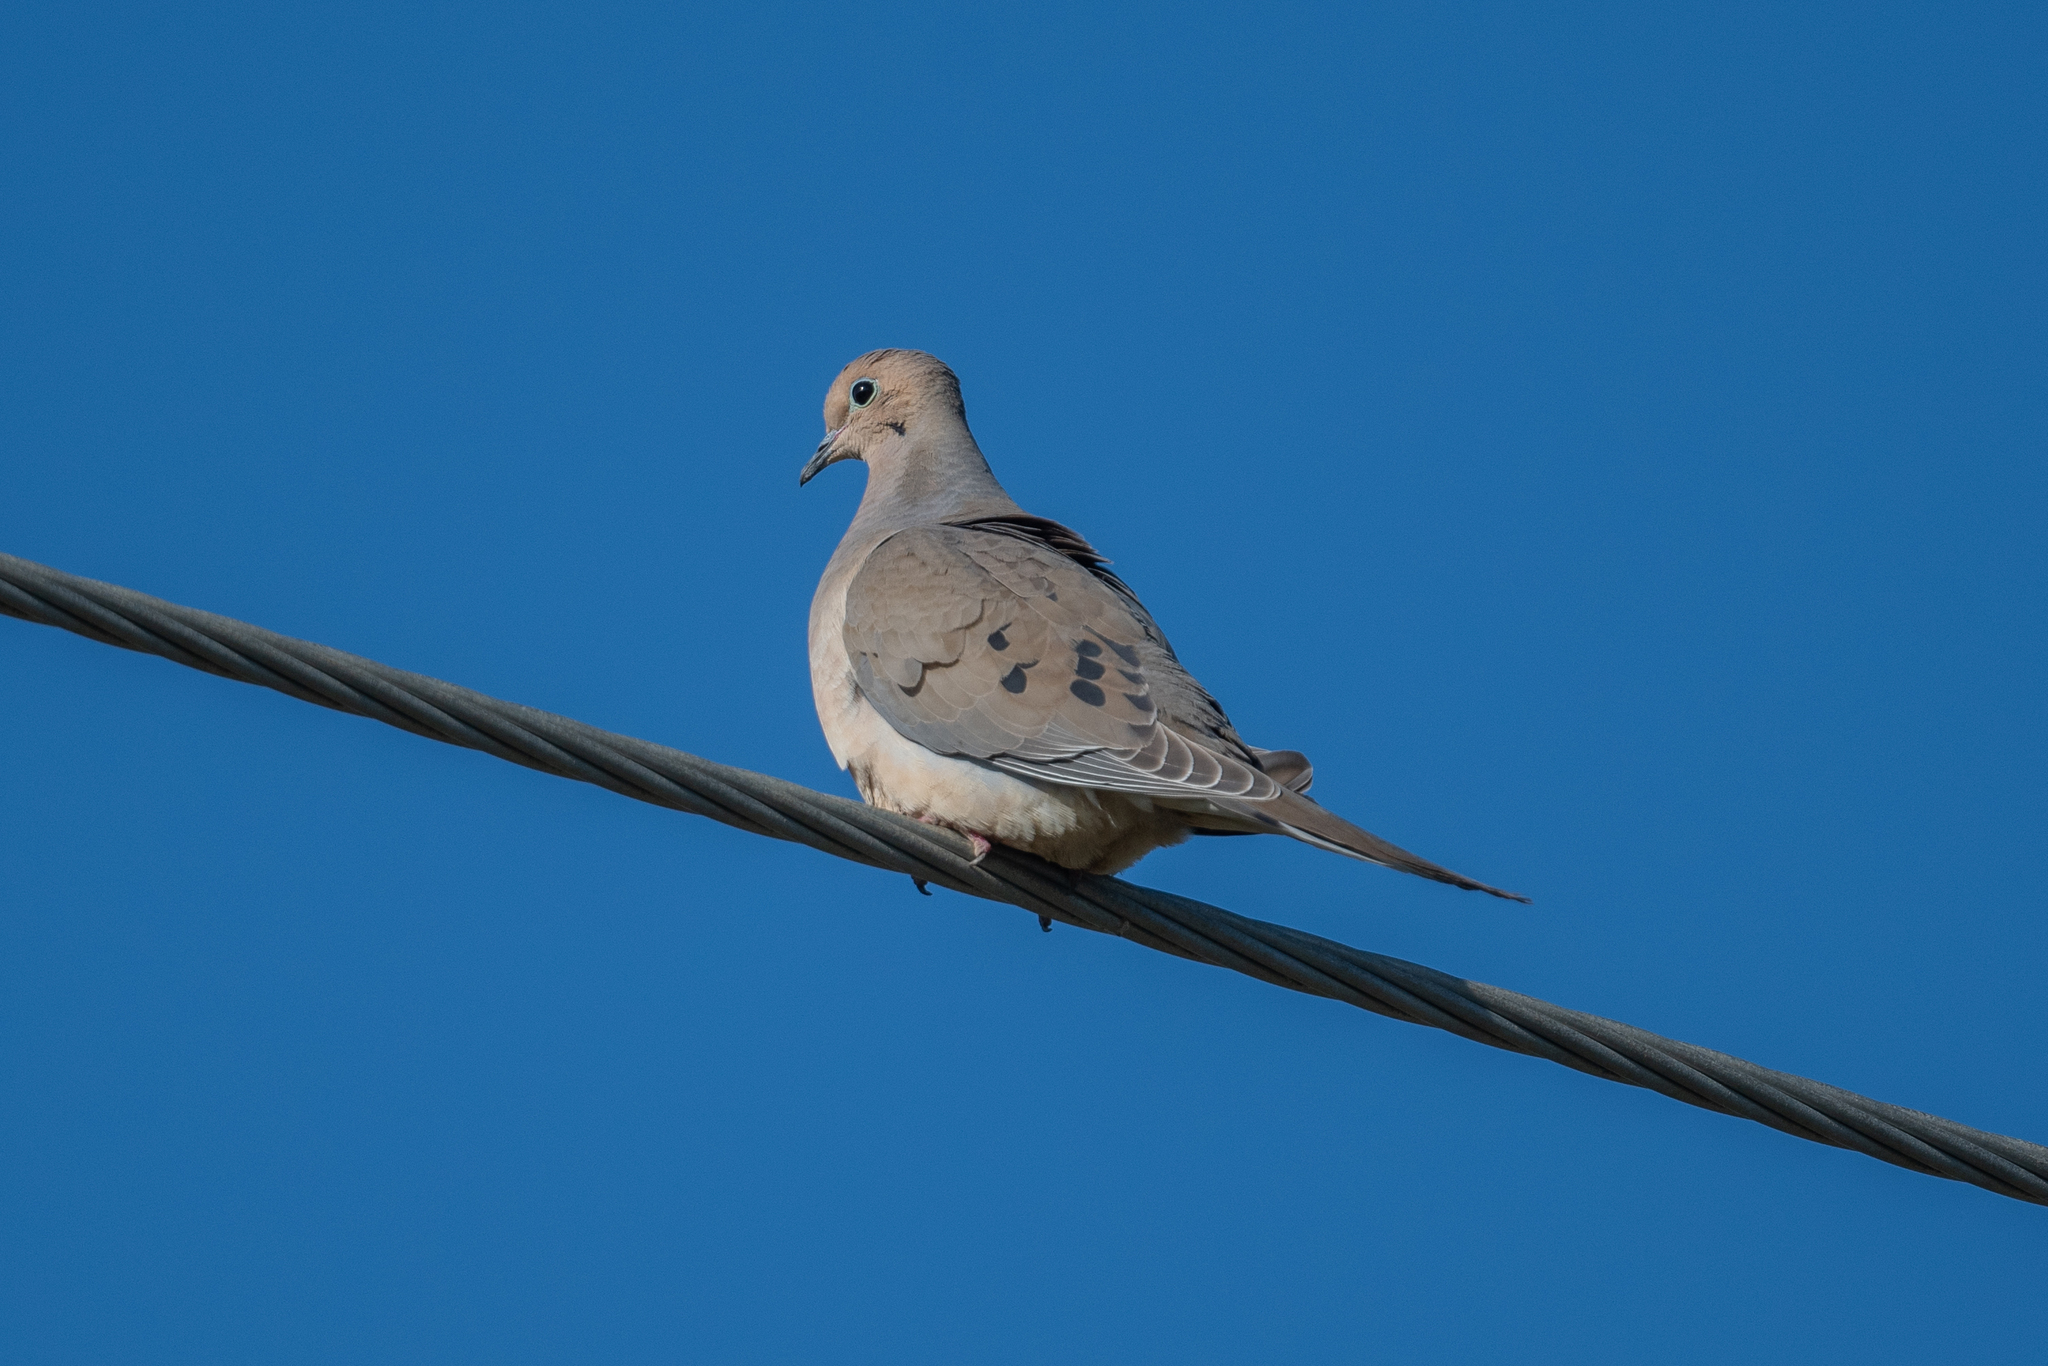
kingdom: Animalia
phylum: Chordata
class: Aves
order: Columbiformes
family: Columbidae
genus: Zenaida
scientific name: Zenaida macroura
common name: Mourning dove
